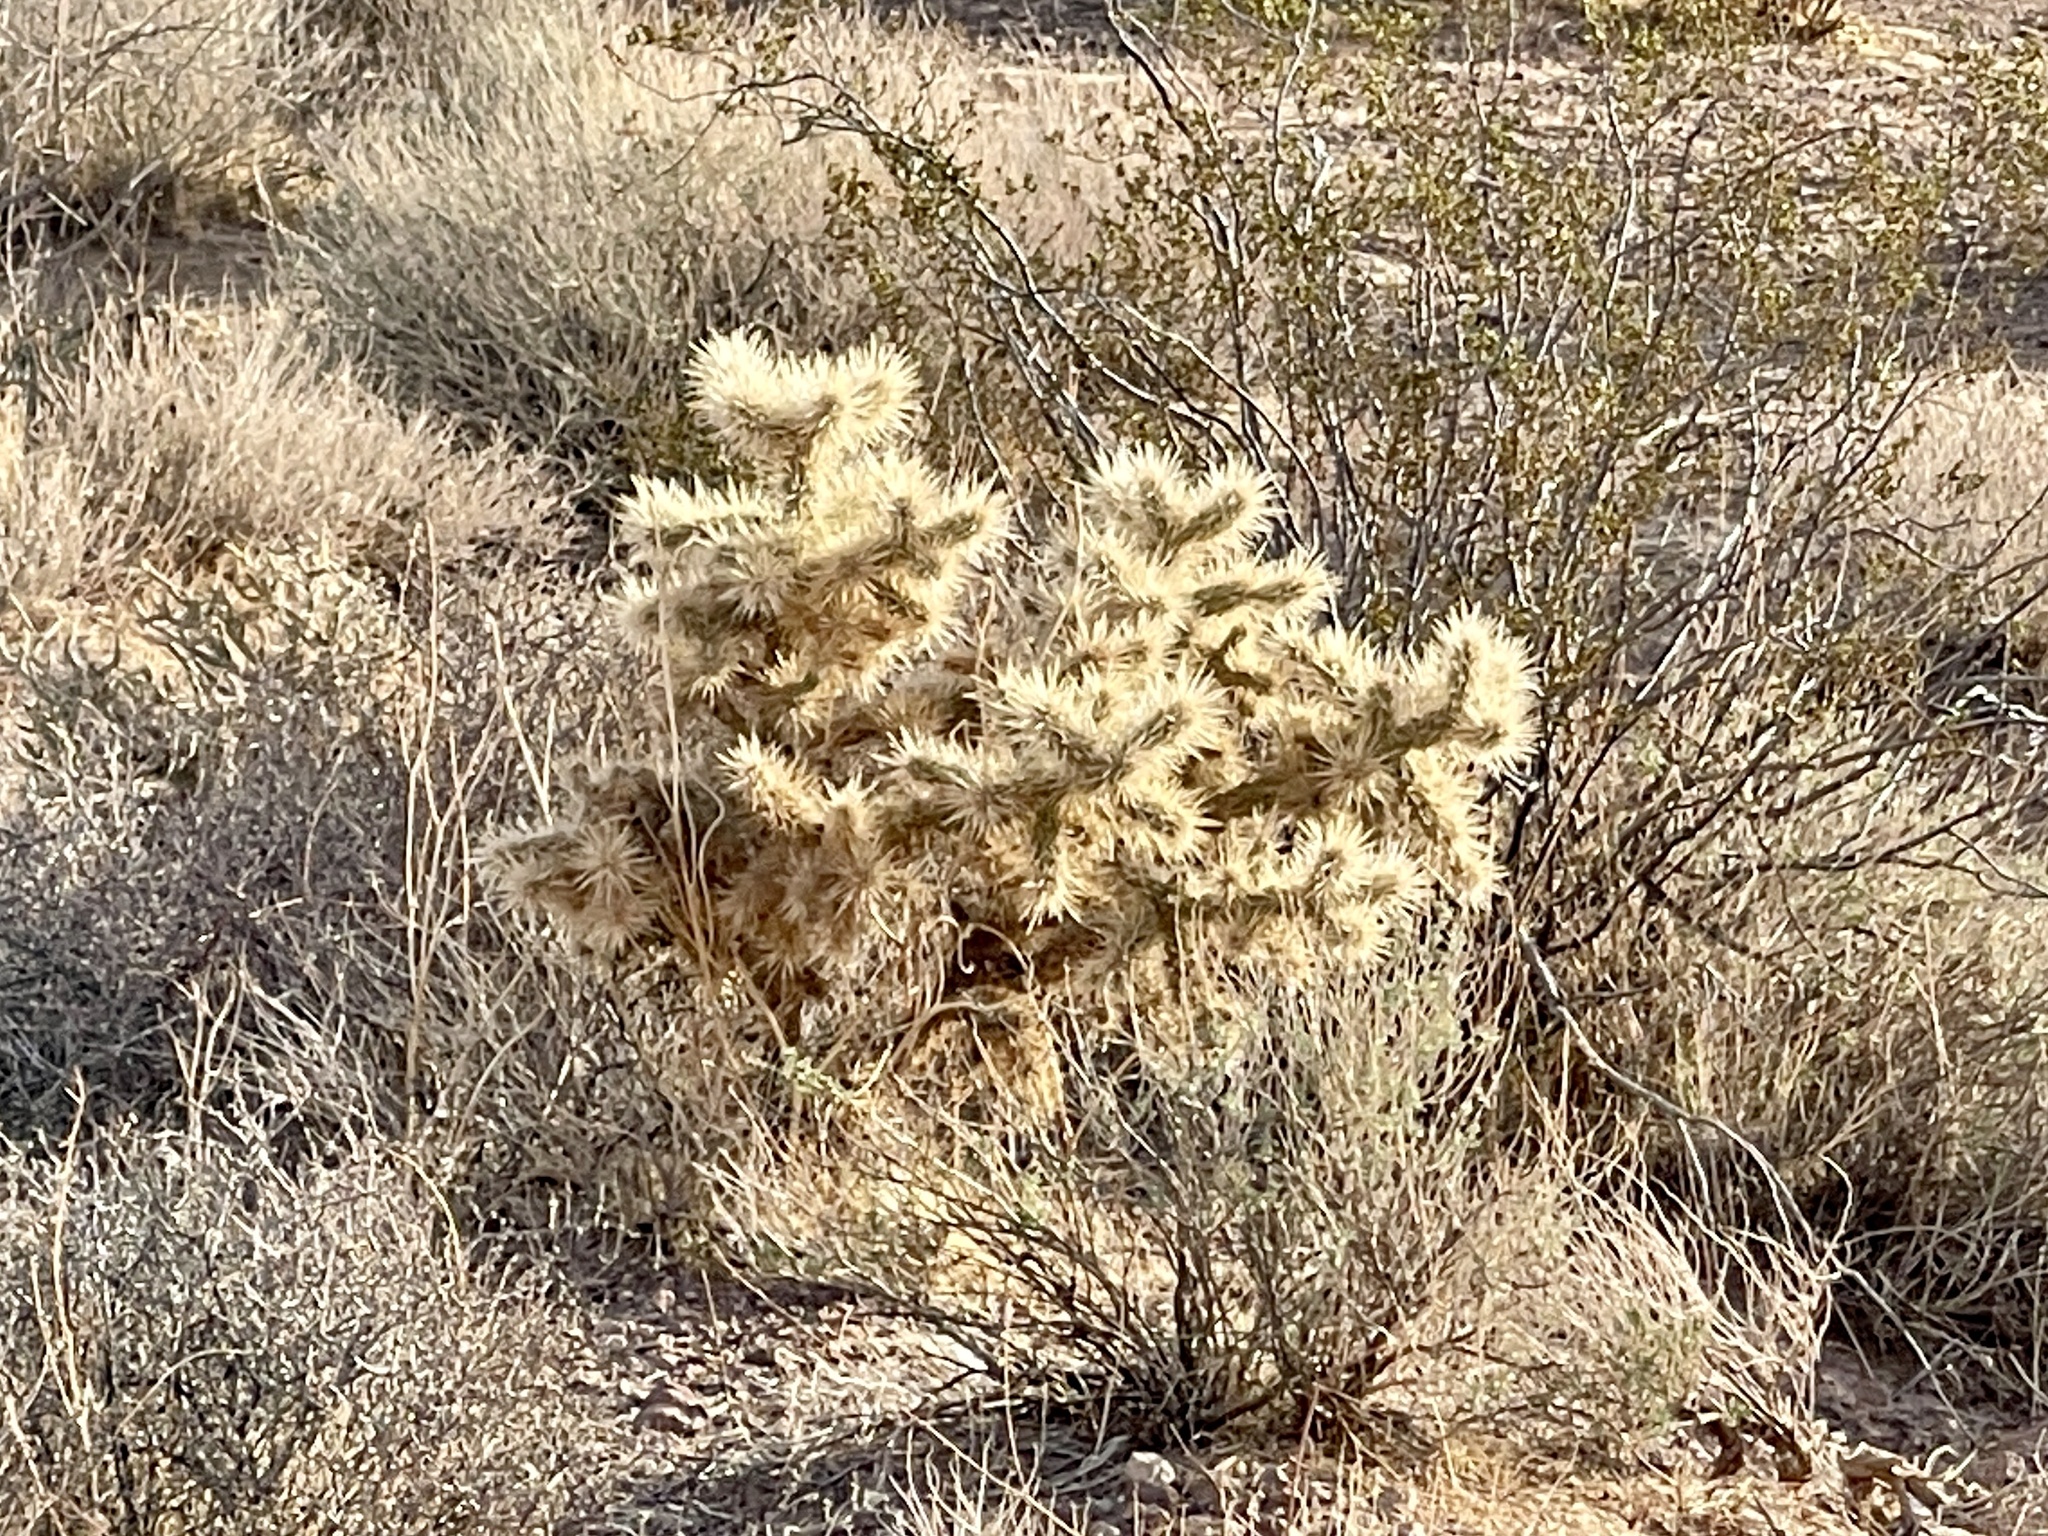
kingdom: Plantae
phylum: Tracheophyta
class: Magnoliopsida
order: Caryophyllales
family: Cactaceae
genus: Cylindropuntia
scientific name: Cylindropuntia echinocarpa
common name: Ground cholla
